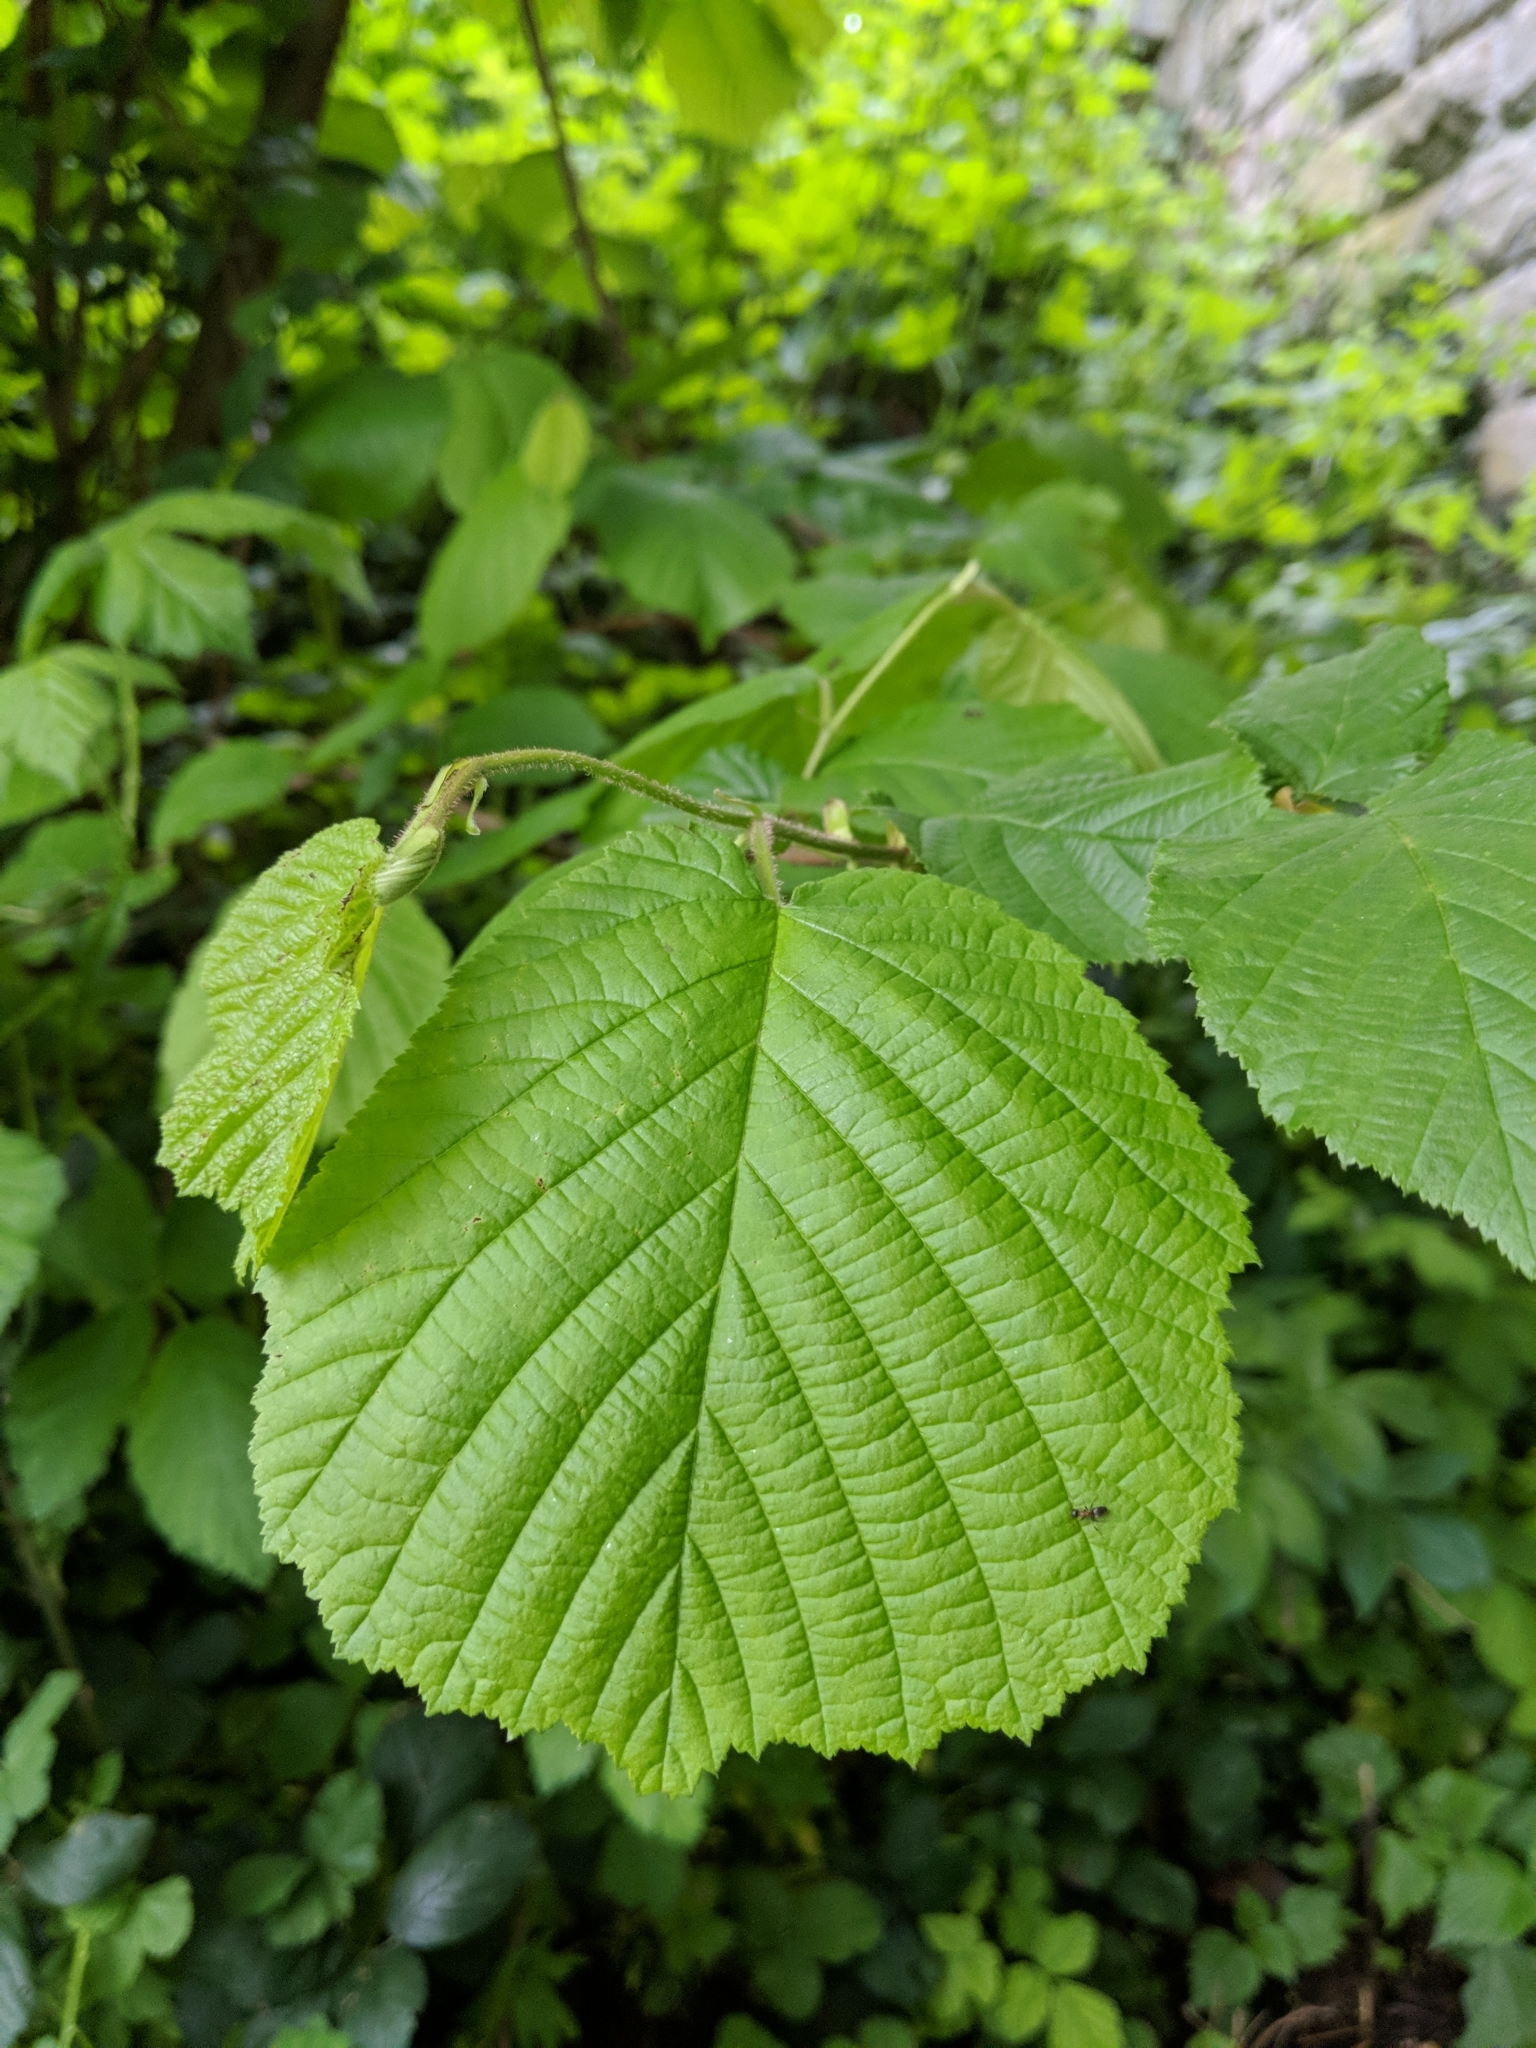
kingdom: Plantae
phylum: Tracheophyta
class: Magnoliopsida
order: Fagales
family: Betulaceae
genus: Corylus
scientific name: Corylus avellana
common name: European hazel
